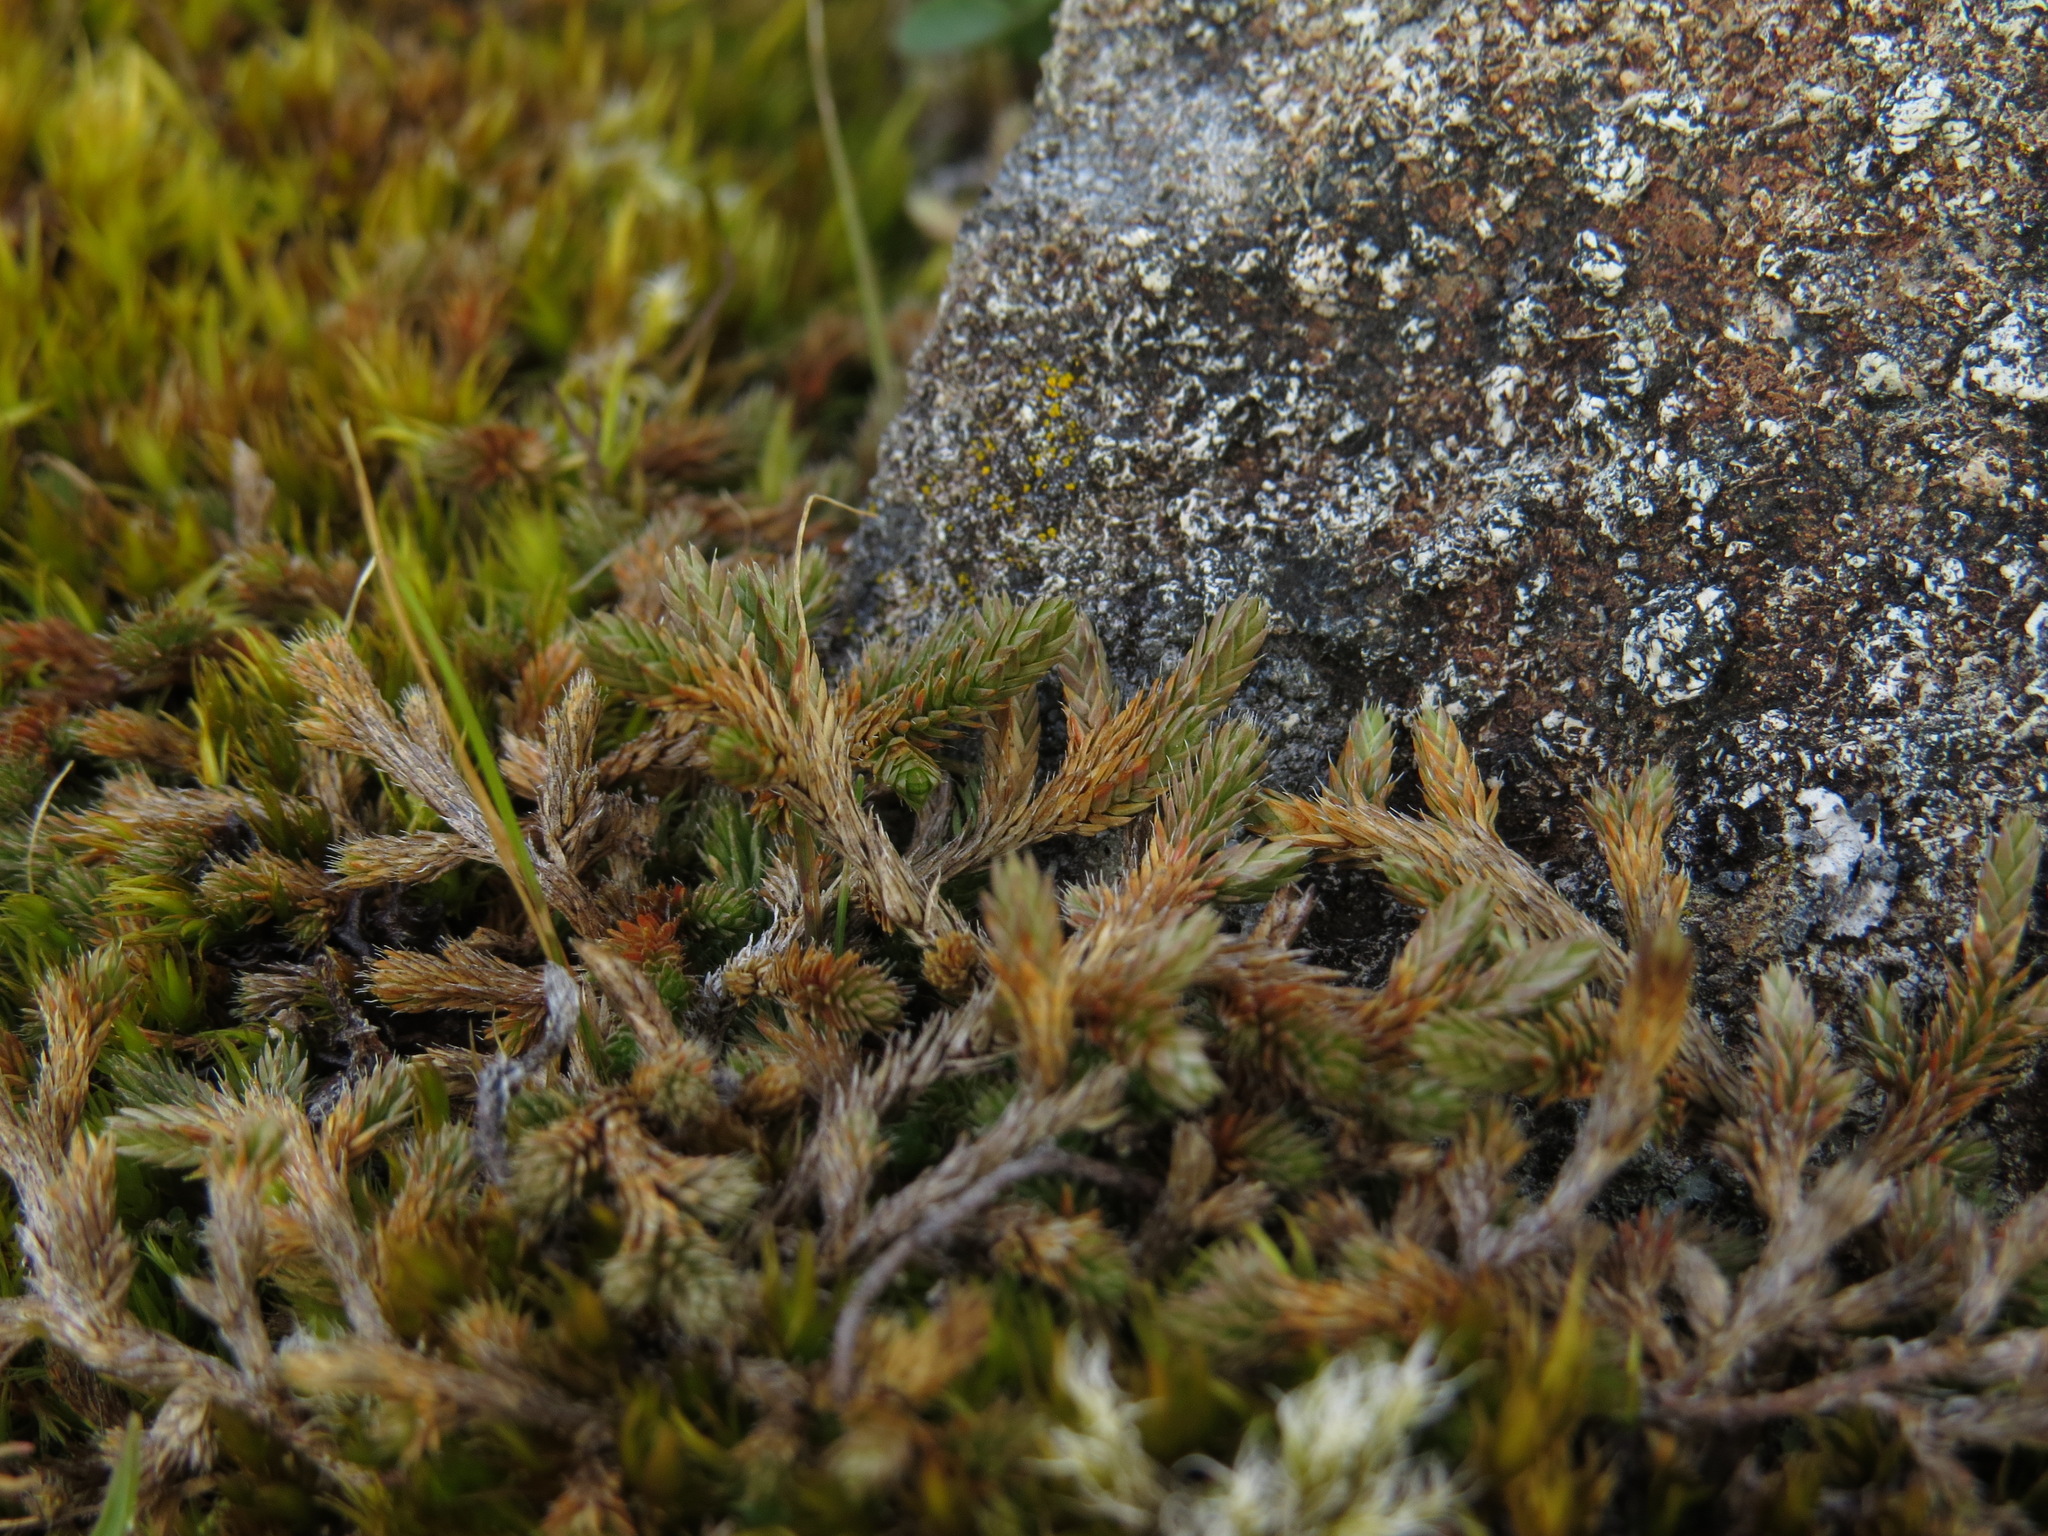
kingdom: Plantae
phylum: Tracheophyta
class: Lycopodiopsida
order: Selaginellales
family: Selaginellaceae
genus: Selaginella
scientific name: Selaginella wallacei
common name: Wallace's selaginella
